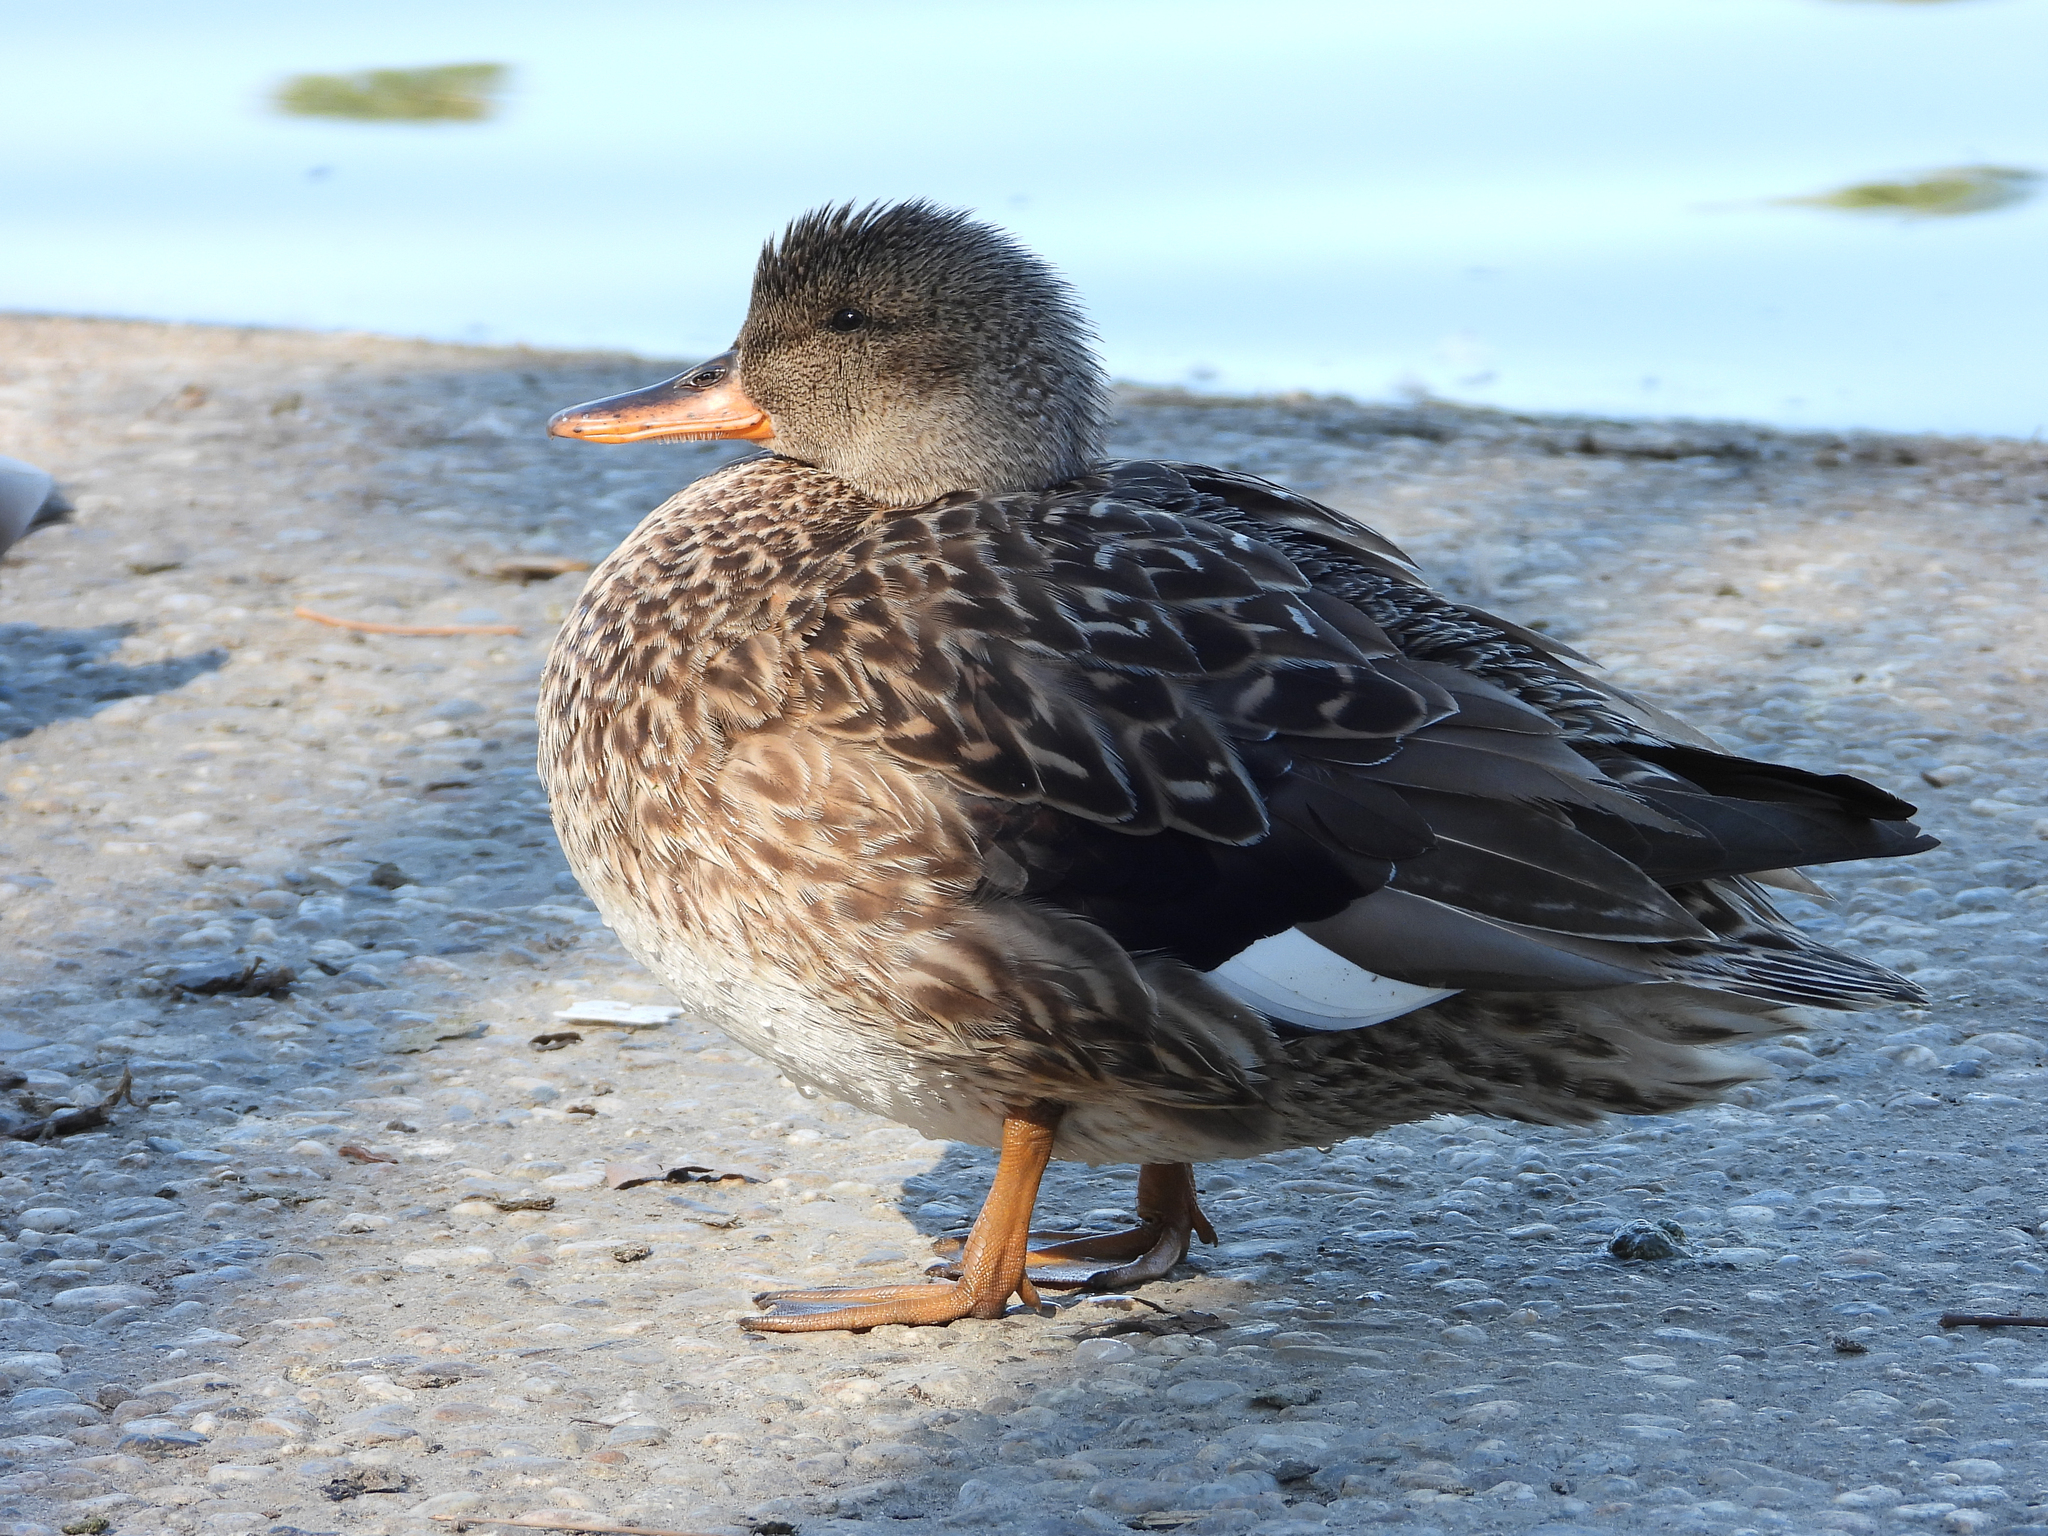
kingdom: Animalia
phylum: Chordata
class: Aves
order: Anseriformes
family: Anatidae
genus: Mareca
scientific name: Mareca strepera
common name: Gadwall
